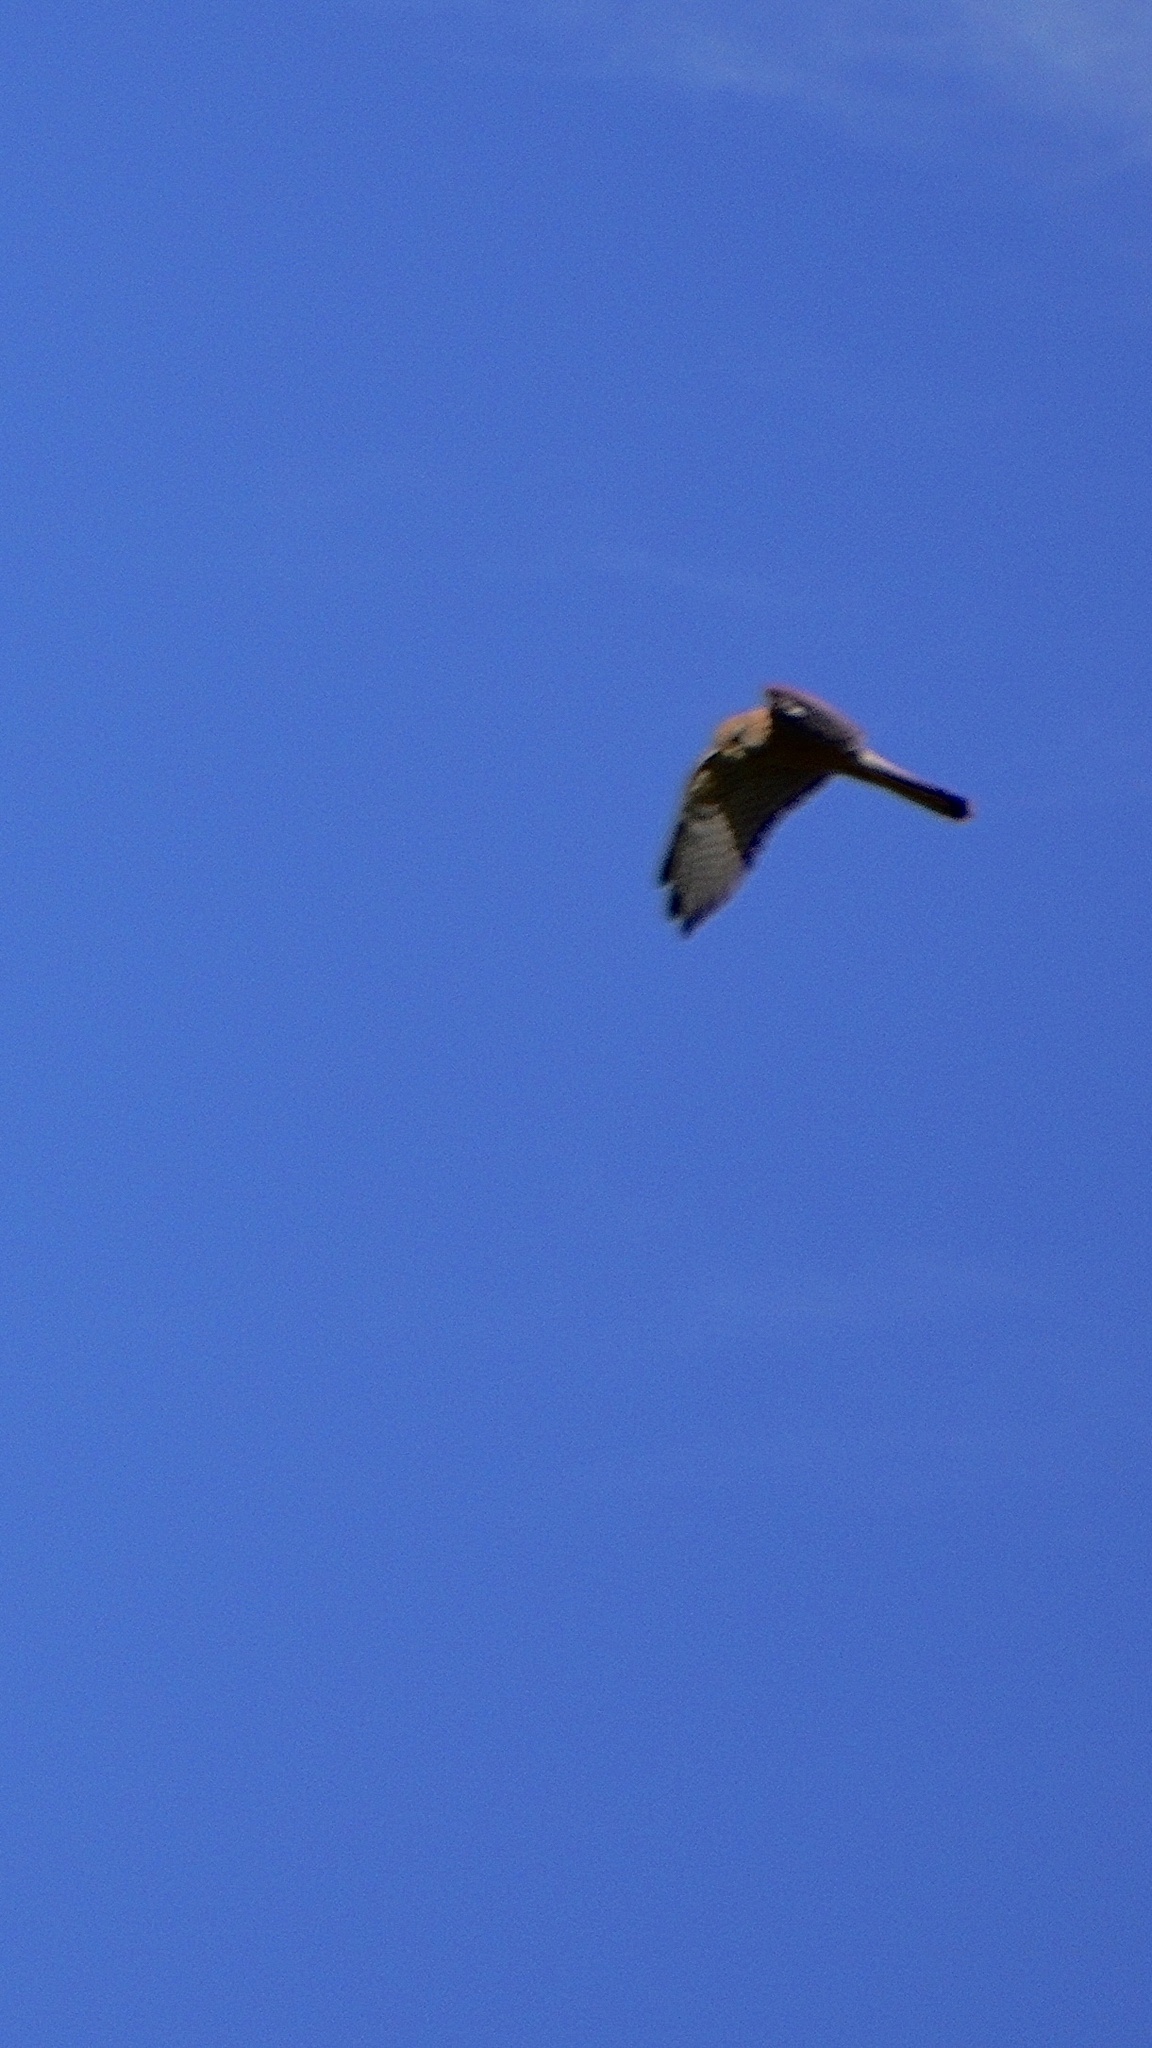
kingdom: Animalia
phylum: Chordata
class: Aves
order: Falconiformes
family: Falconidae
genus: Falco
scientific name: Falco tinnunculus
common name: Common kestrel
